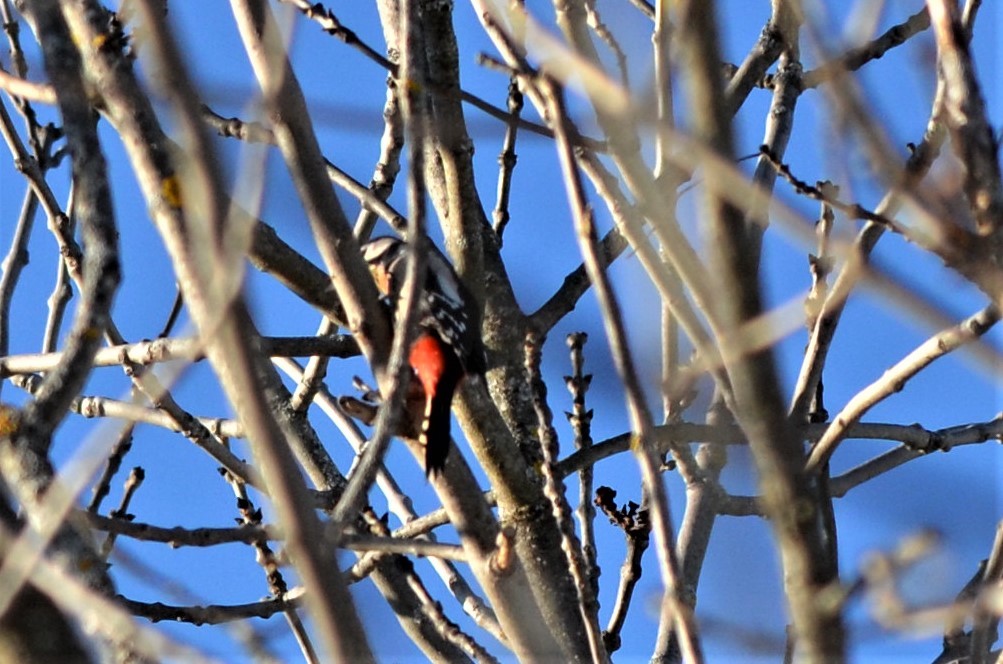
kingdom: Animalia
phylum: Chordata
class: Aves
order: Piciformes
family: Picidae
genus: Dendrocopos
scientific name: Dendrocopos major
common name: Great spotted woodpecker
